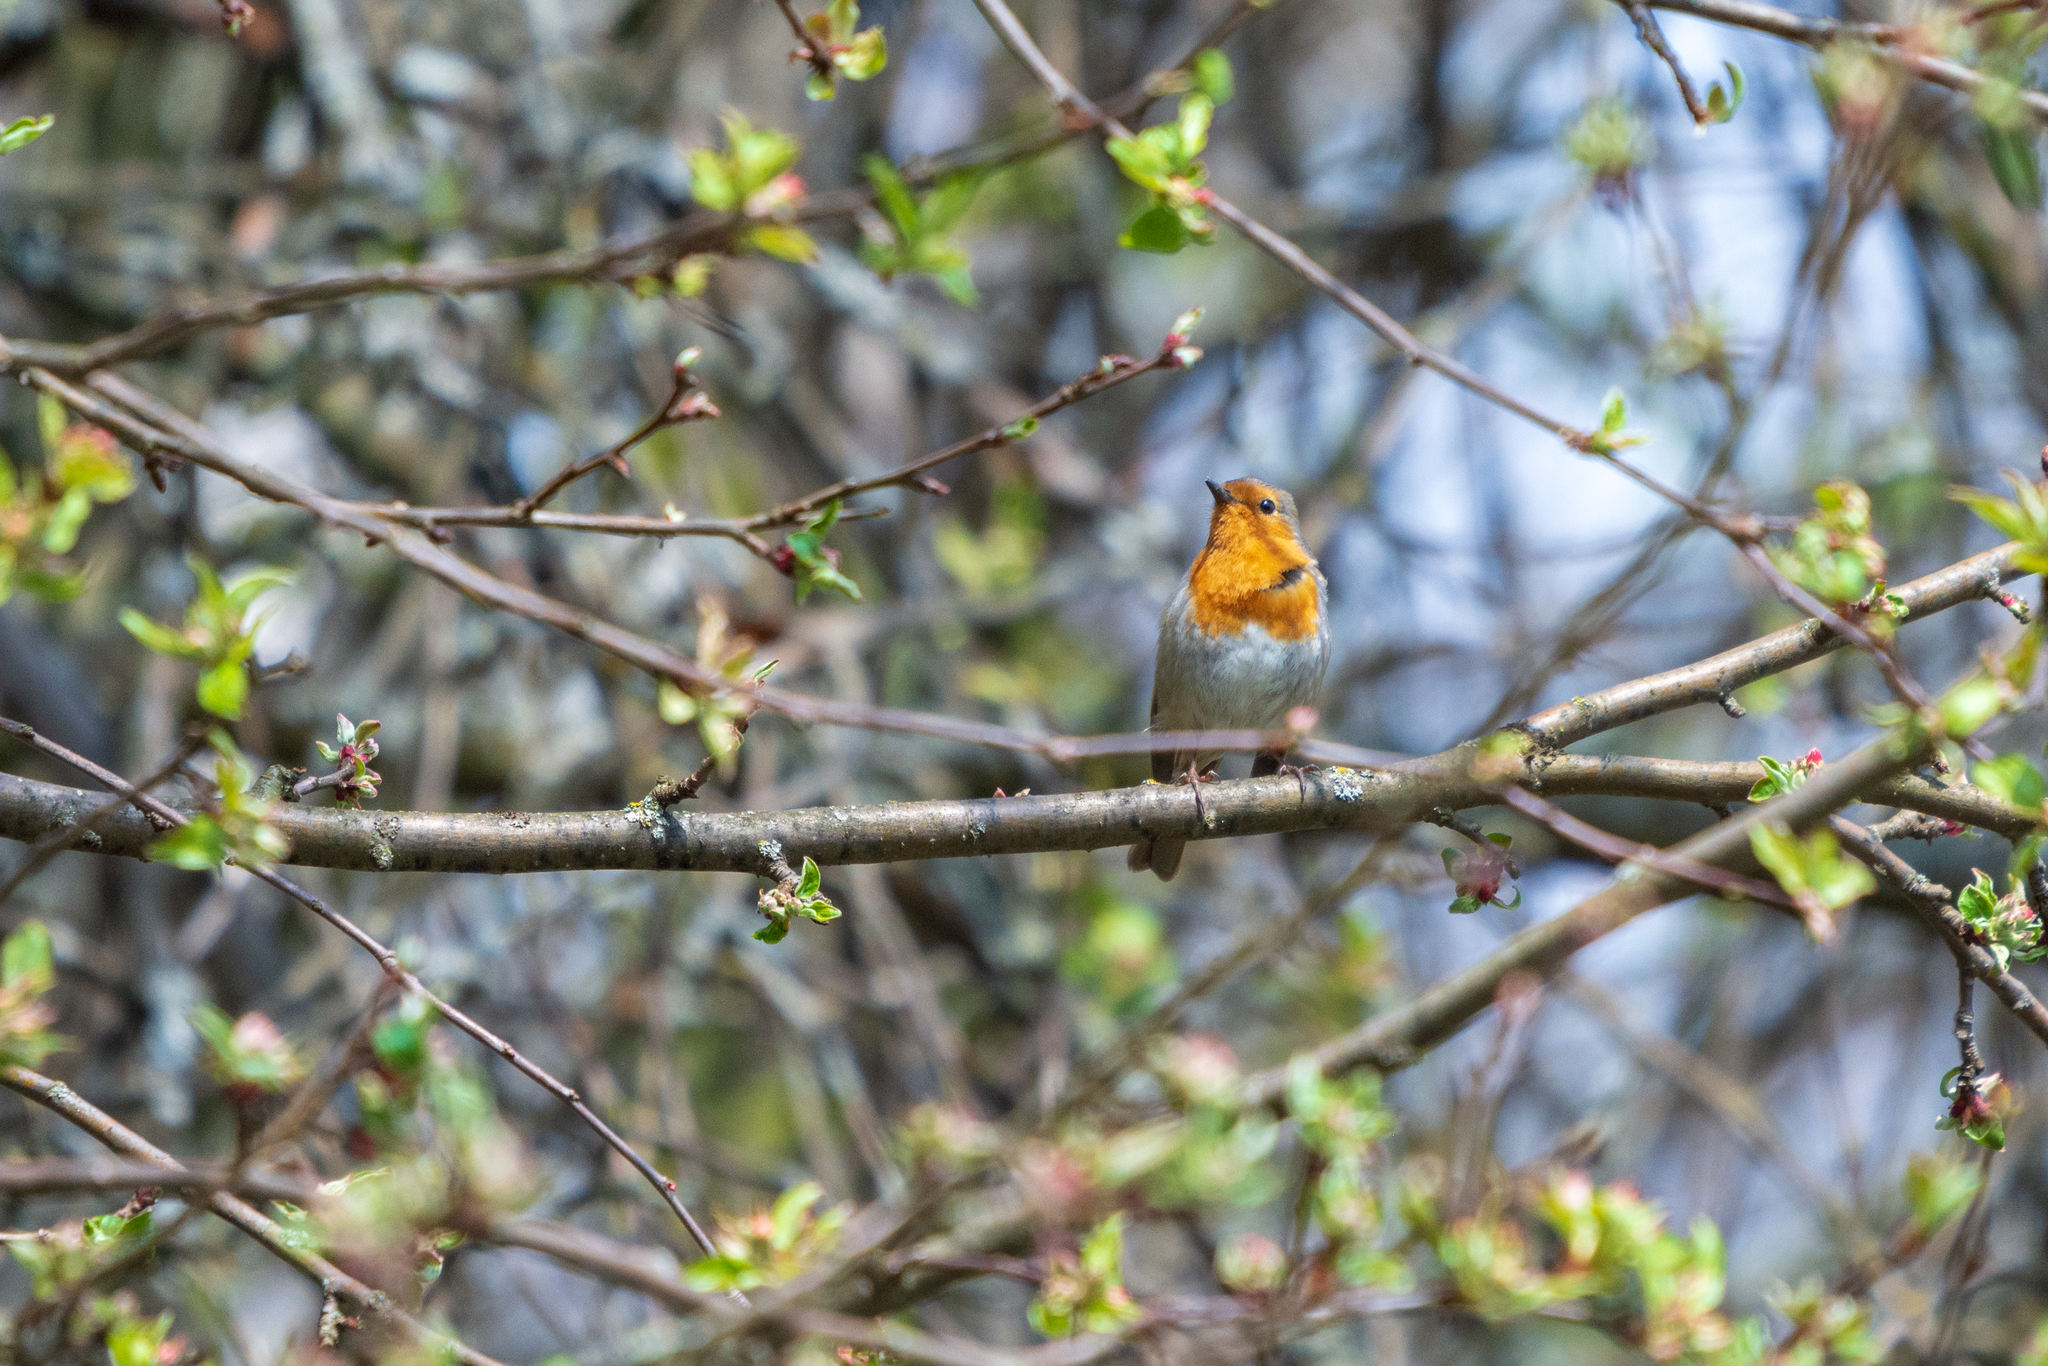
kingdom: Animalia
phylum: Chordata
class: Aves
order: Passeriformes
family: Muscicapidae
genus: Erithacus
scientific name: Erithacus rubecula
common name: European robin
